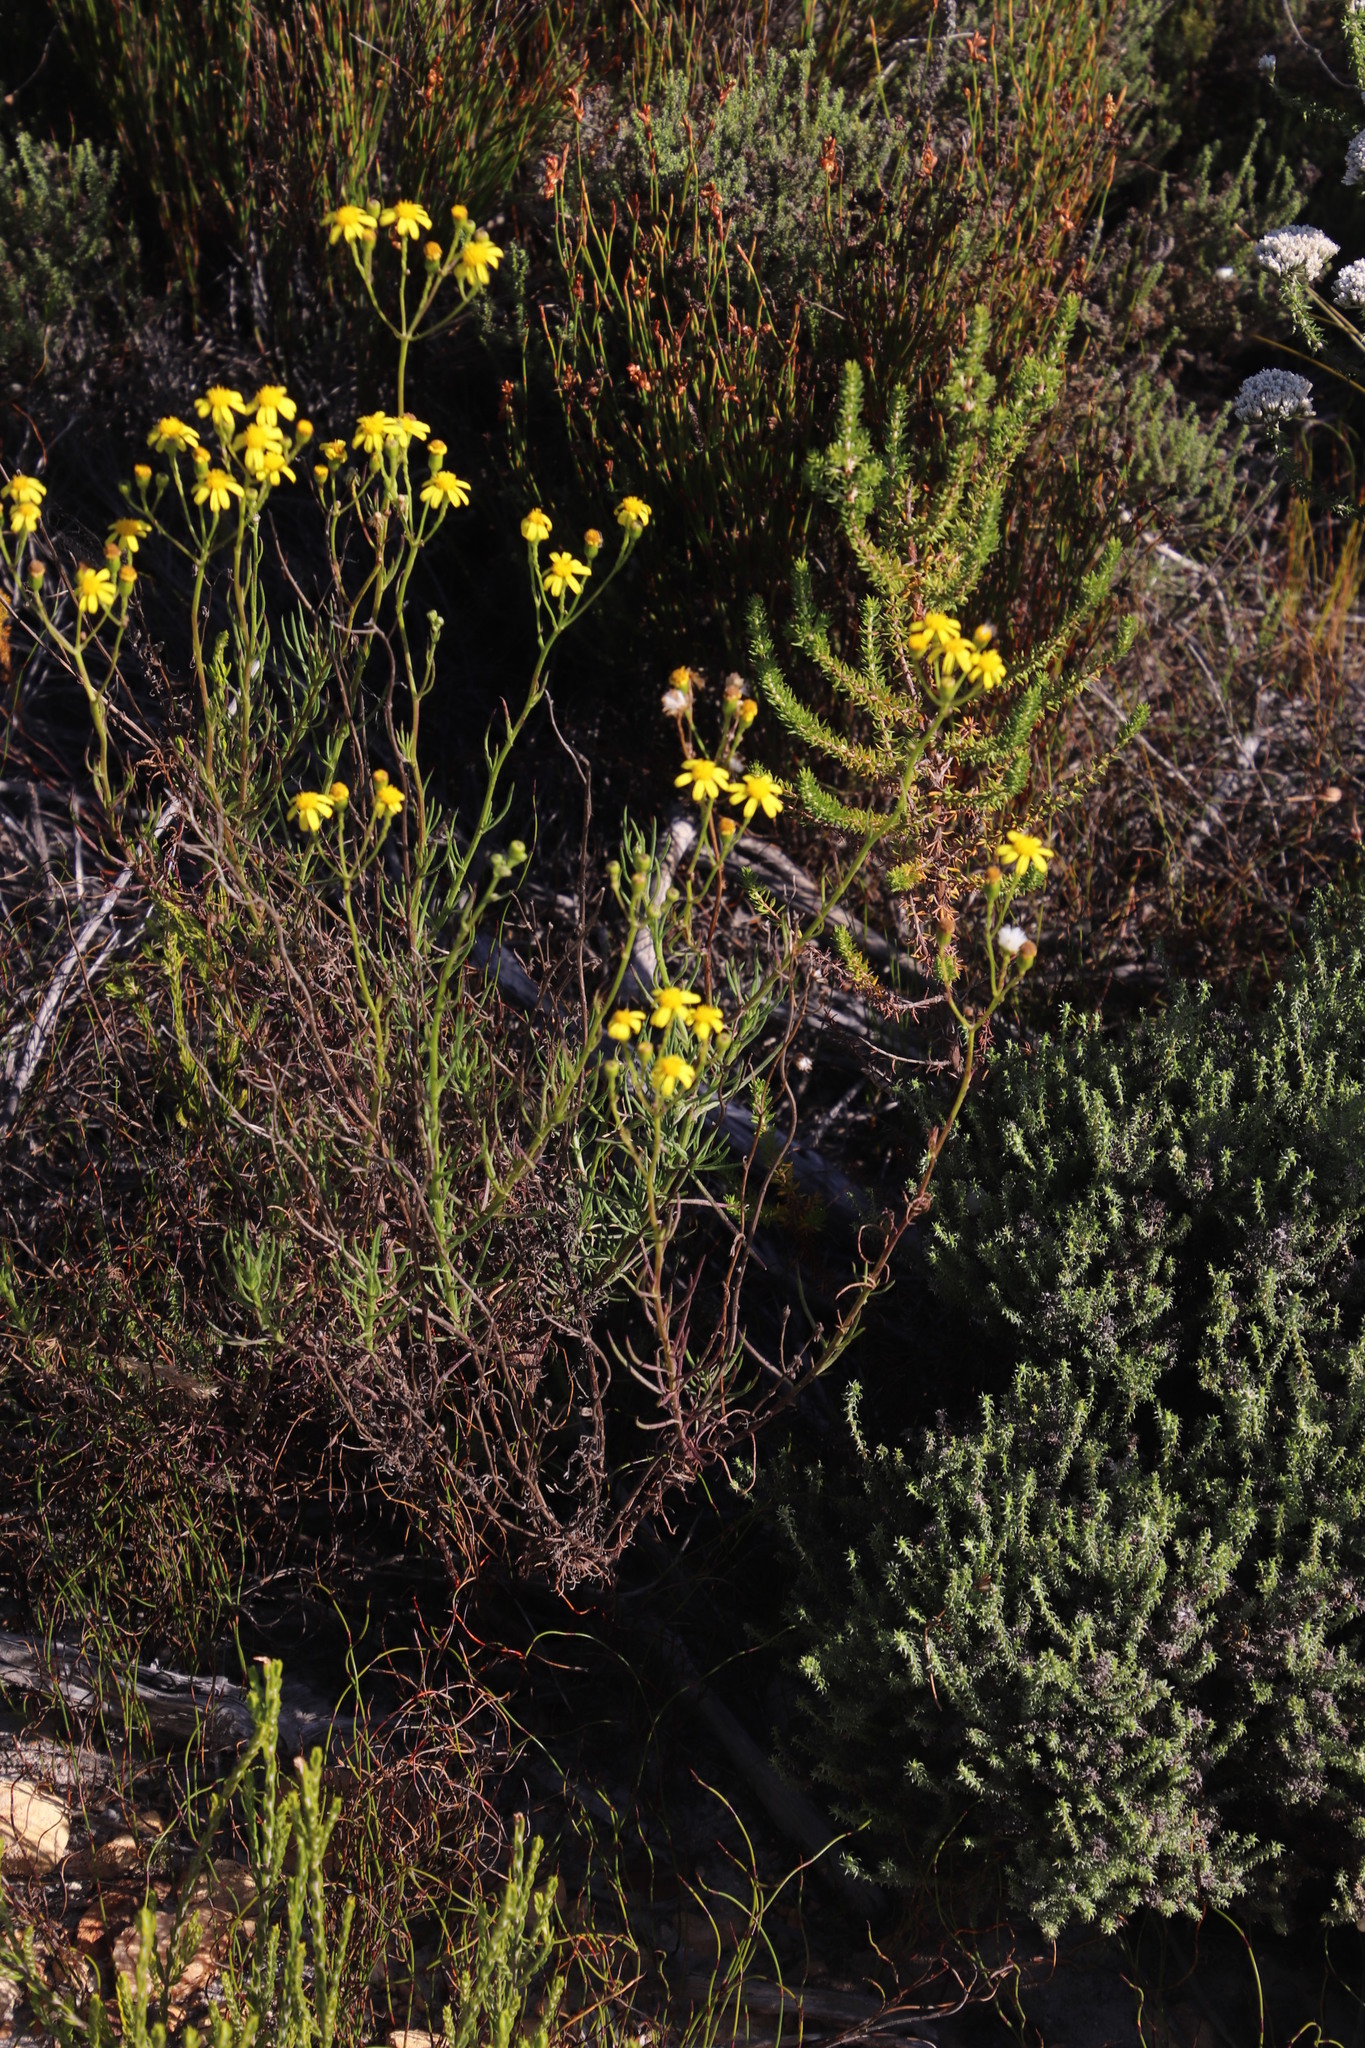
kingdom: Plantae
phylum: Tracheophyta
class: Magnoliopsida
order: Asterales
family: Asteraceae
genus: Senecio
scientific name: Senecio burchellii
